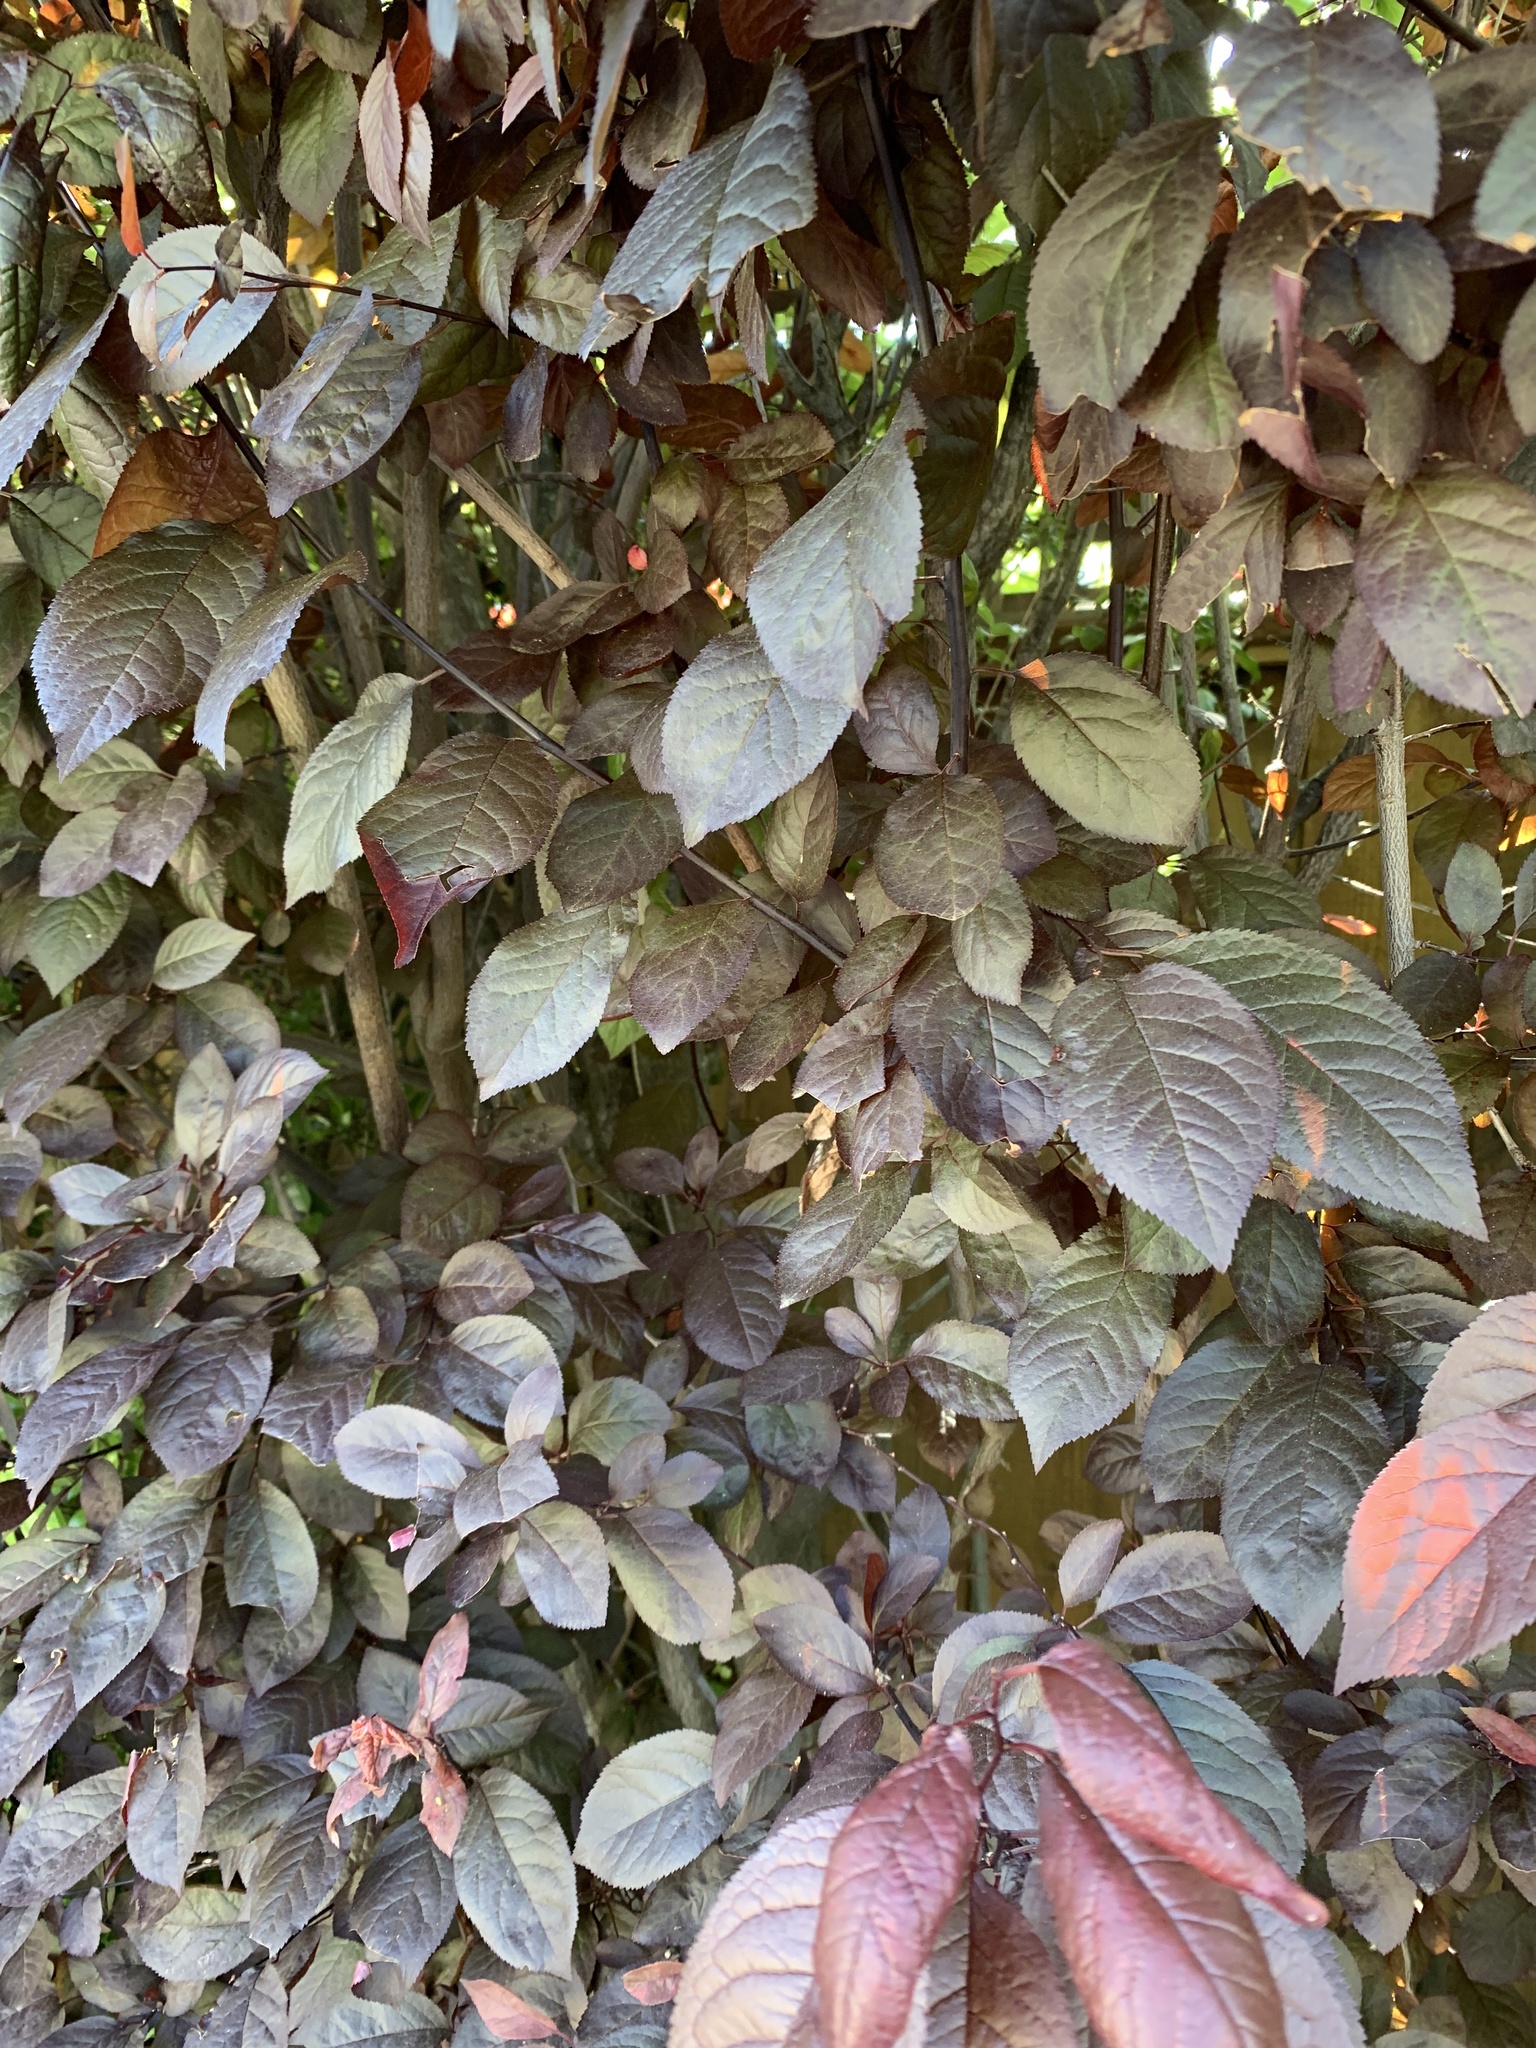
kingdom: Plantae
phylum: Tracheophyta
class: Magnoliopsida
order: Rosales
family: Rosaceae
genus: Prunus
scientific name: Prunus cerasifera
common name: Cherry plum
